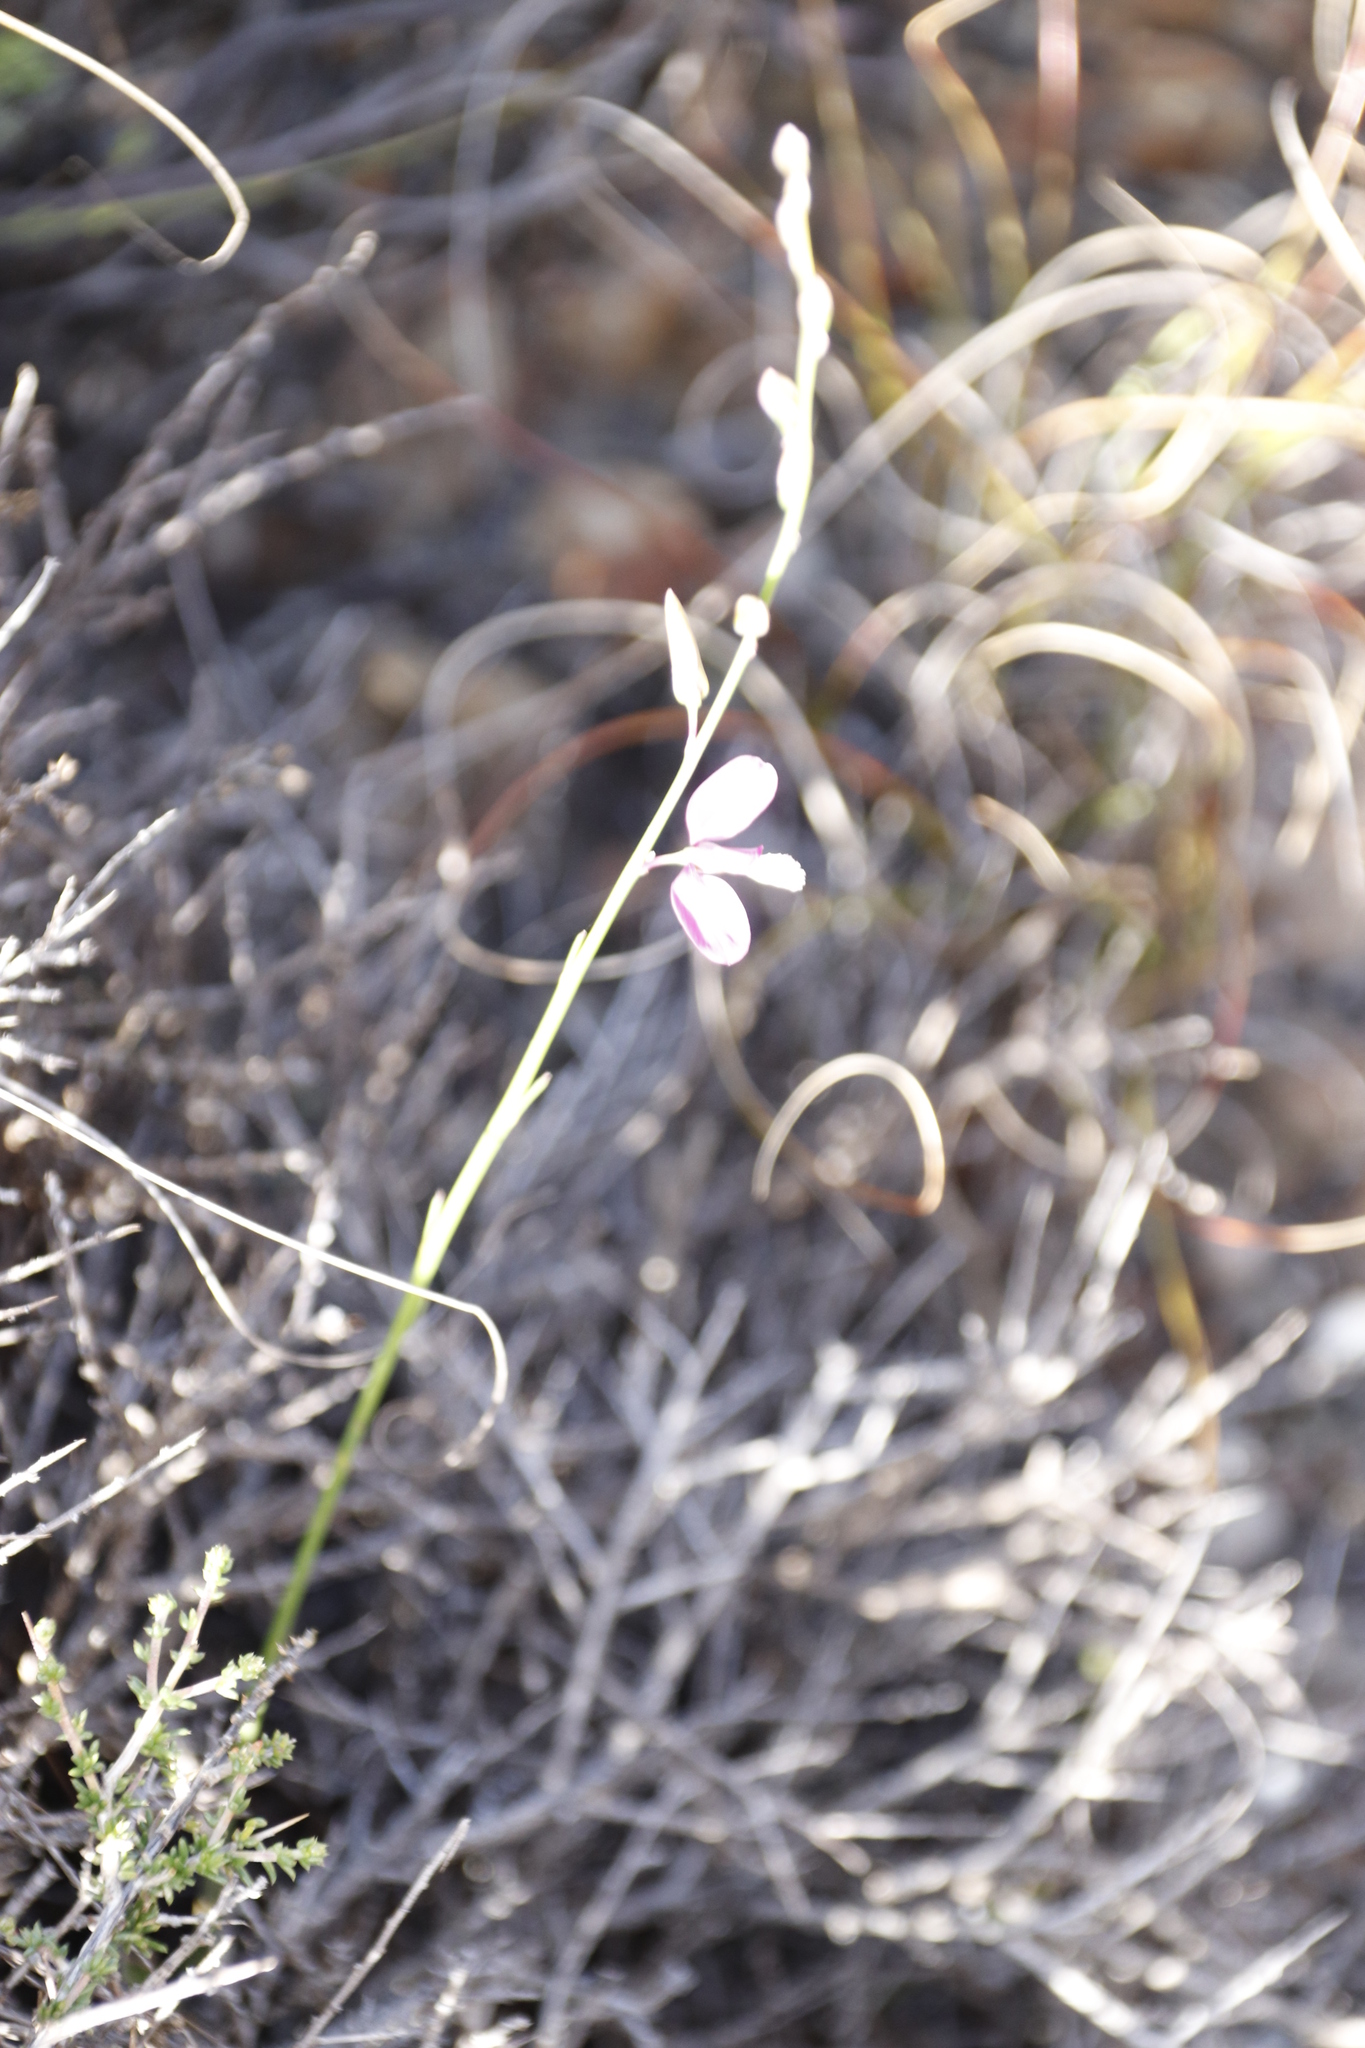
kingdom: Plantae
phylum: Tracheophyta
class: Magnoliopsida
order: Fabales
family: Polygalaceae
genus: Polygala
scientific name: Polygala garcini
